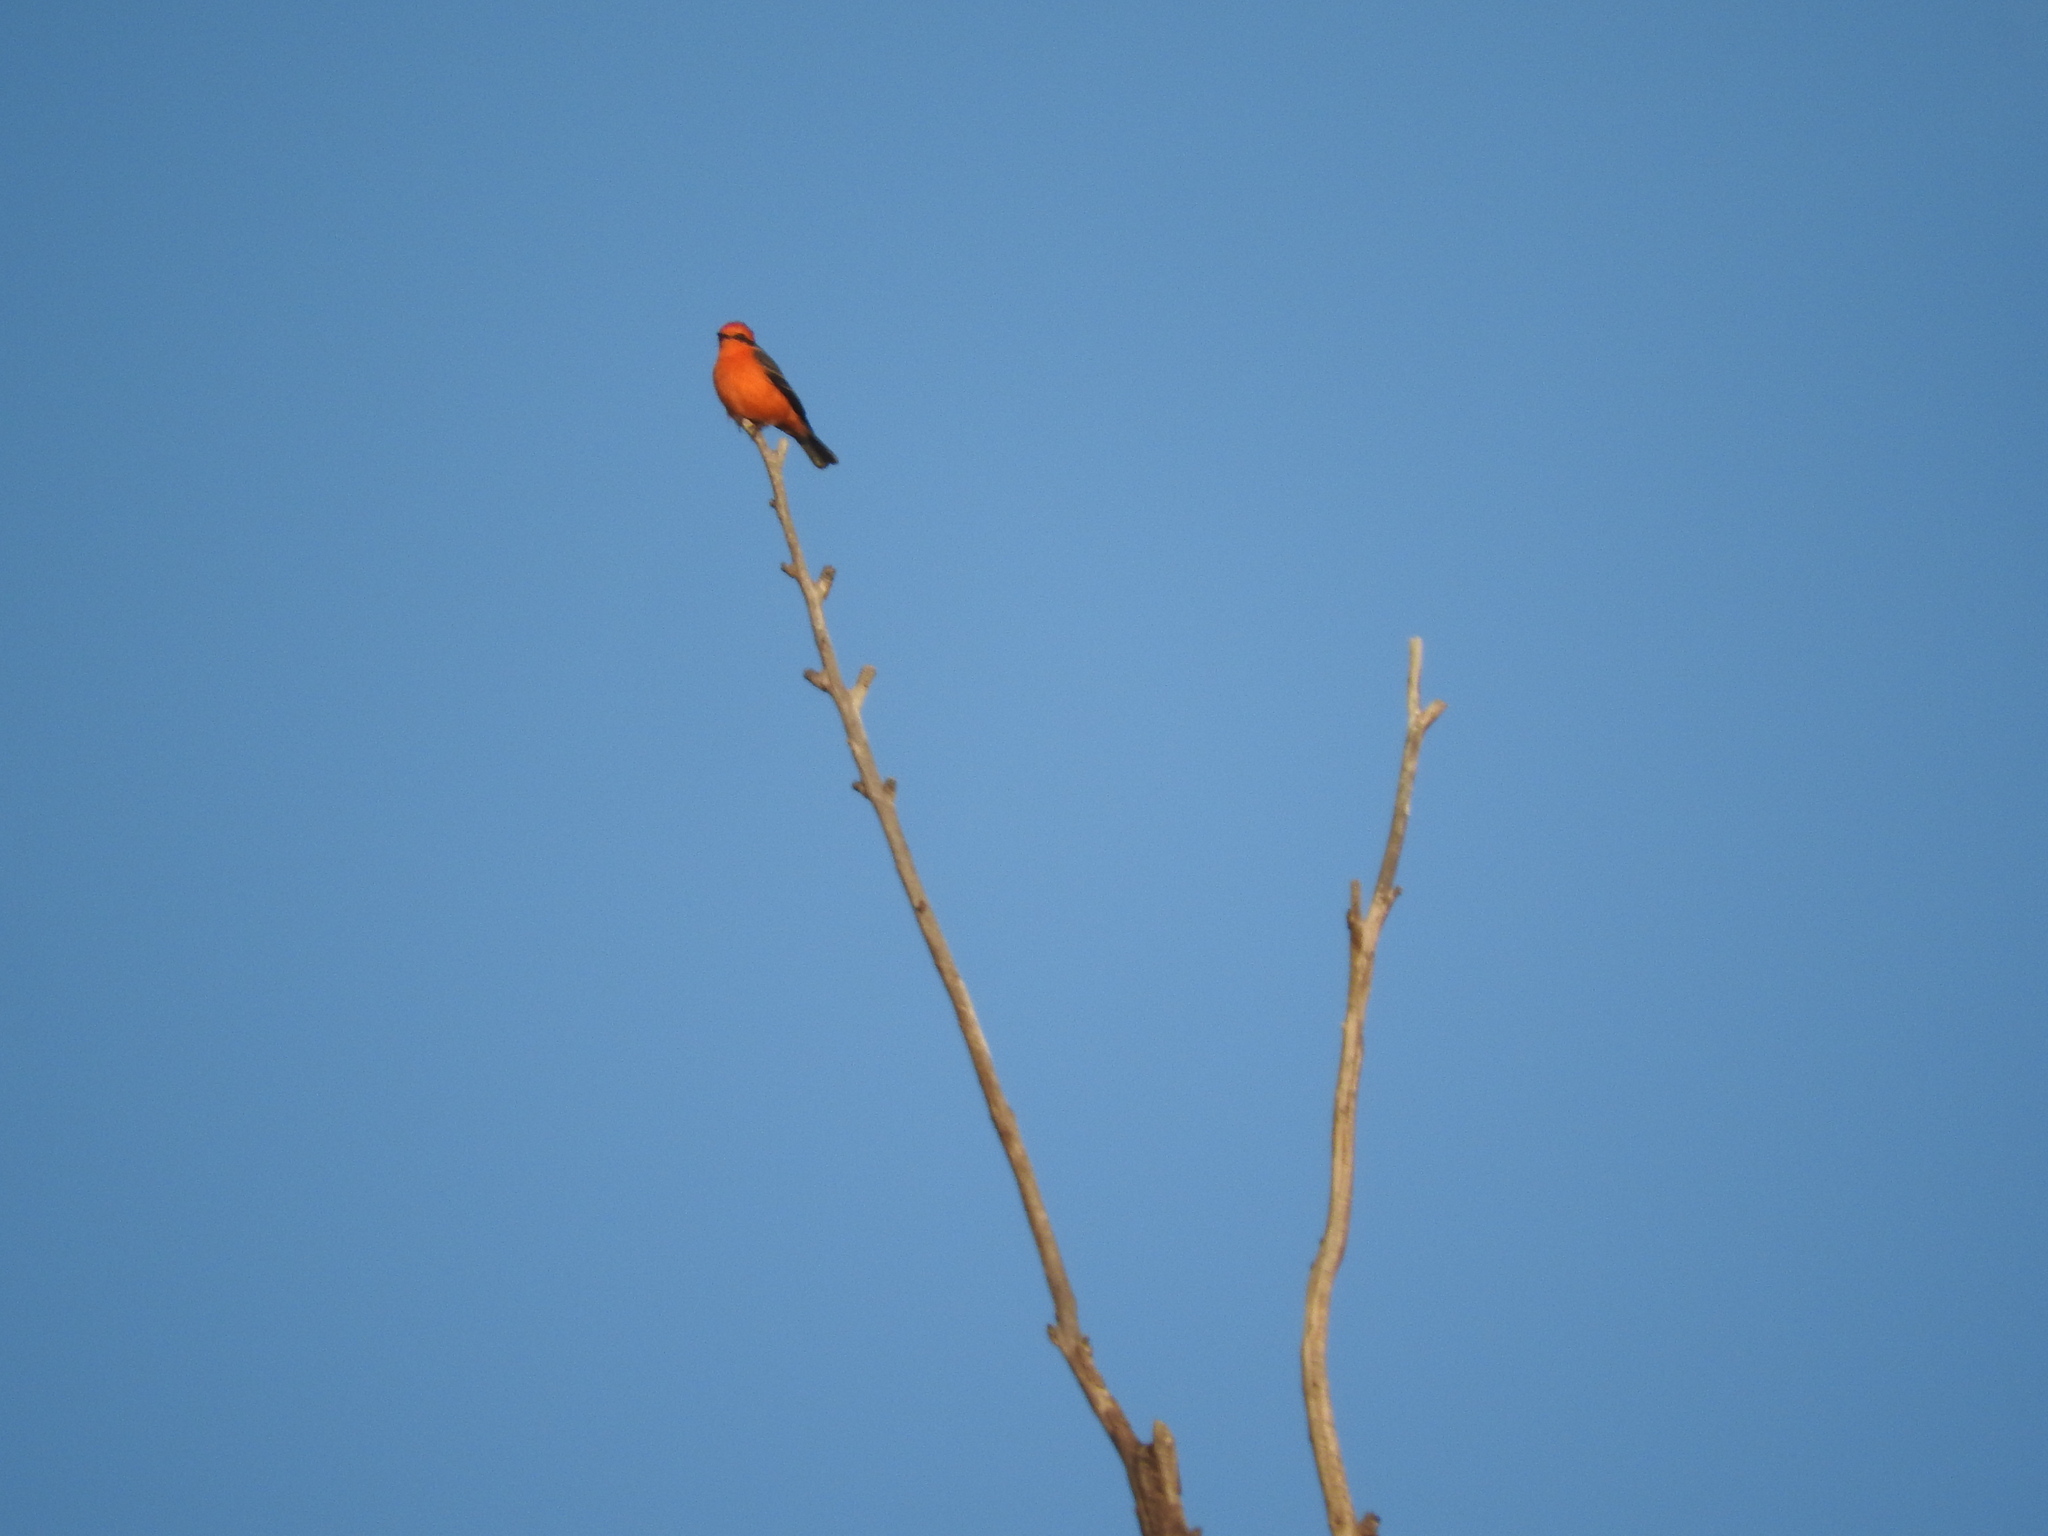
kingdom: Animalia
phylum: Chordata
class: Aves
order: Passeriformes
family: Tyrannidae
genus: Pyrocephalus
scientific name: Pyrocephalus rubinus
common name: Vermilion flycatcher
